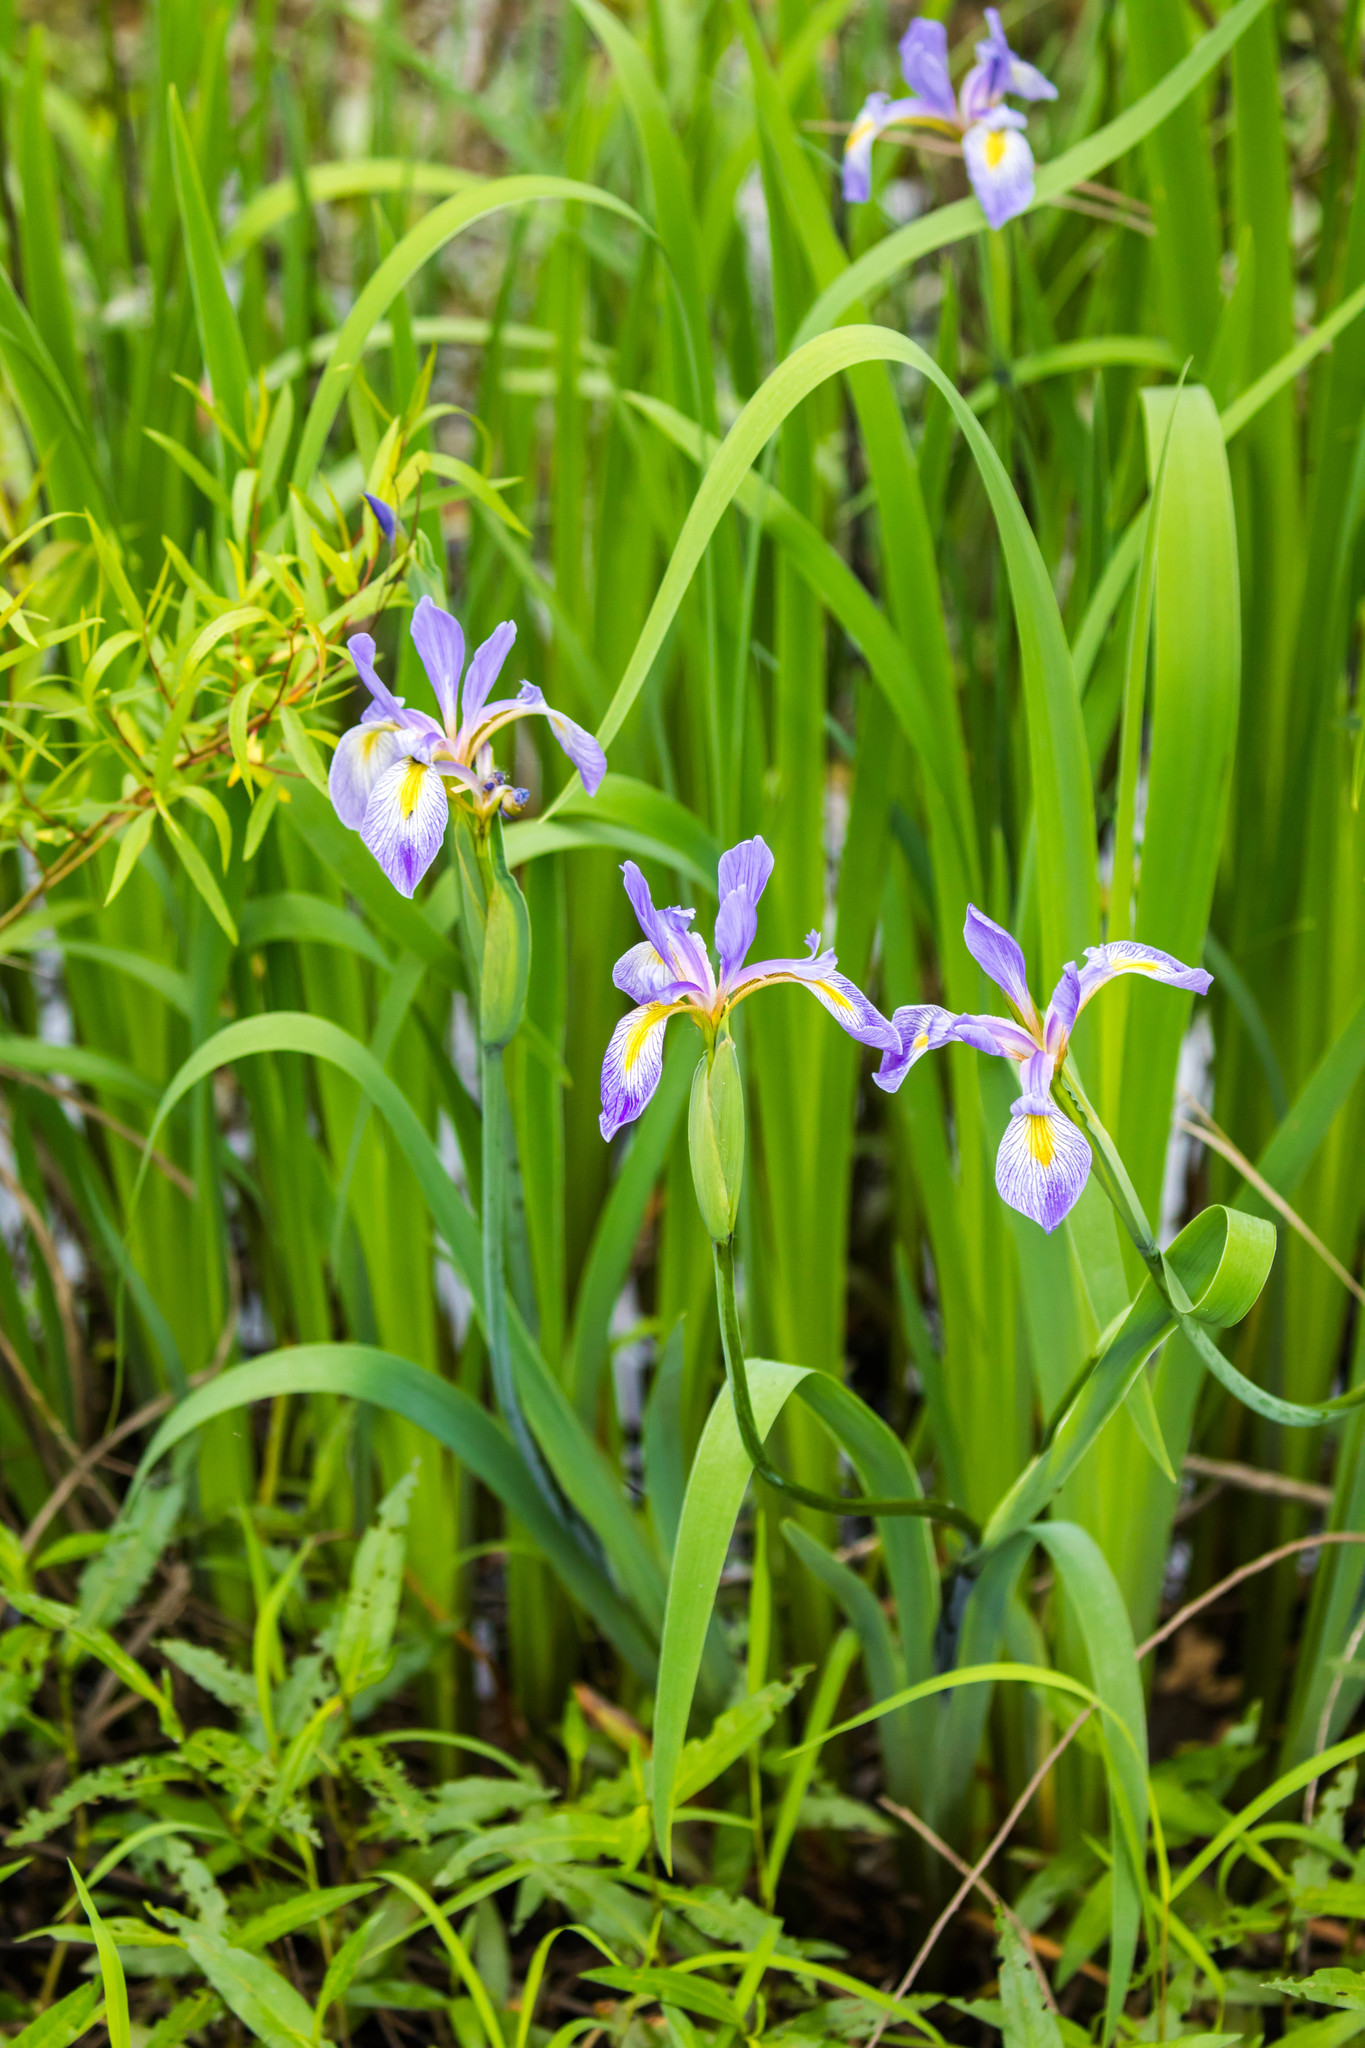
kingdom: Plantae
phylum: Tracheophyta
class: Liliopsida
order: Asparagales
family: Iridaceae
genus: Iris
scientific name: Iris virginica
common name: Southern blue flag
